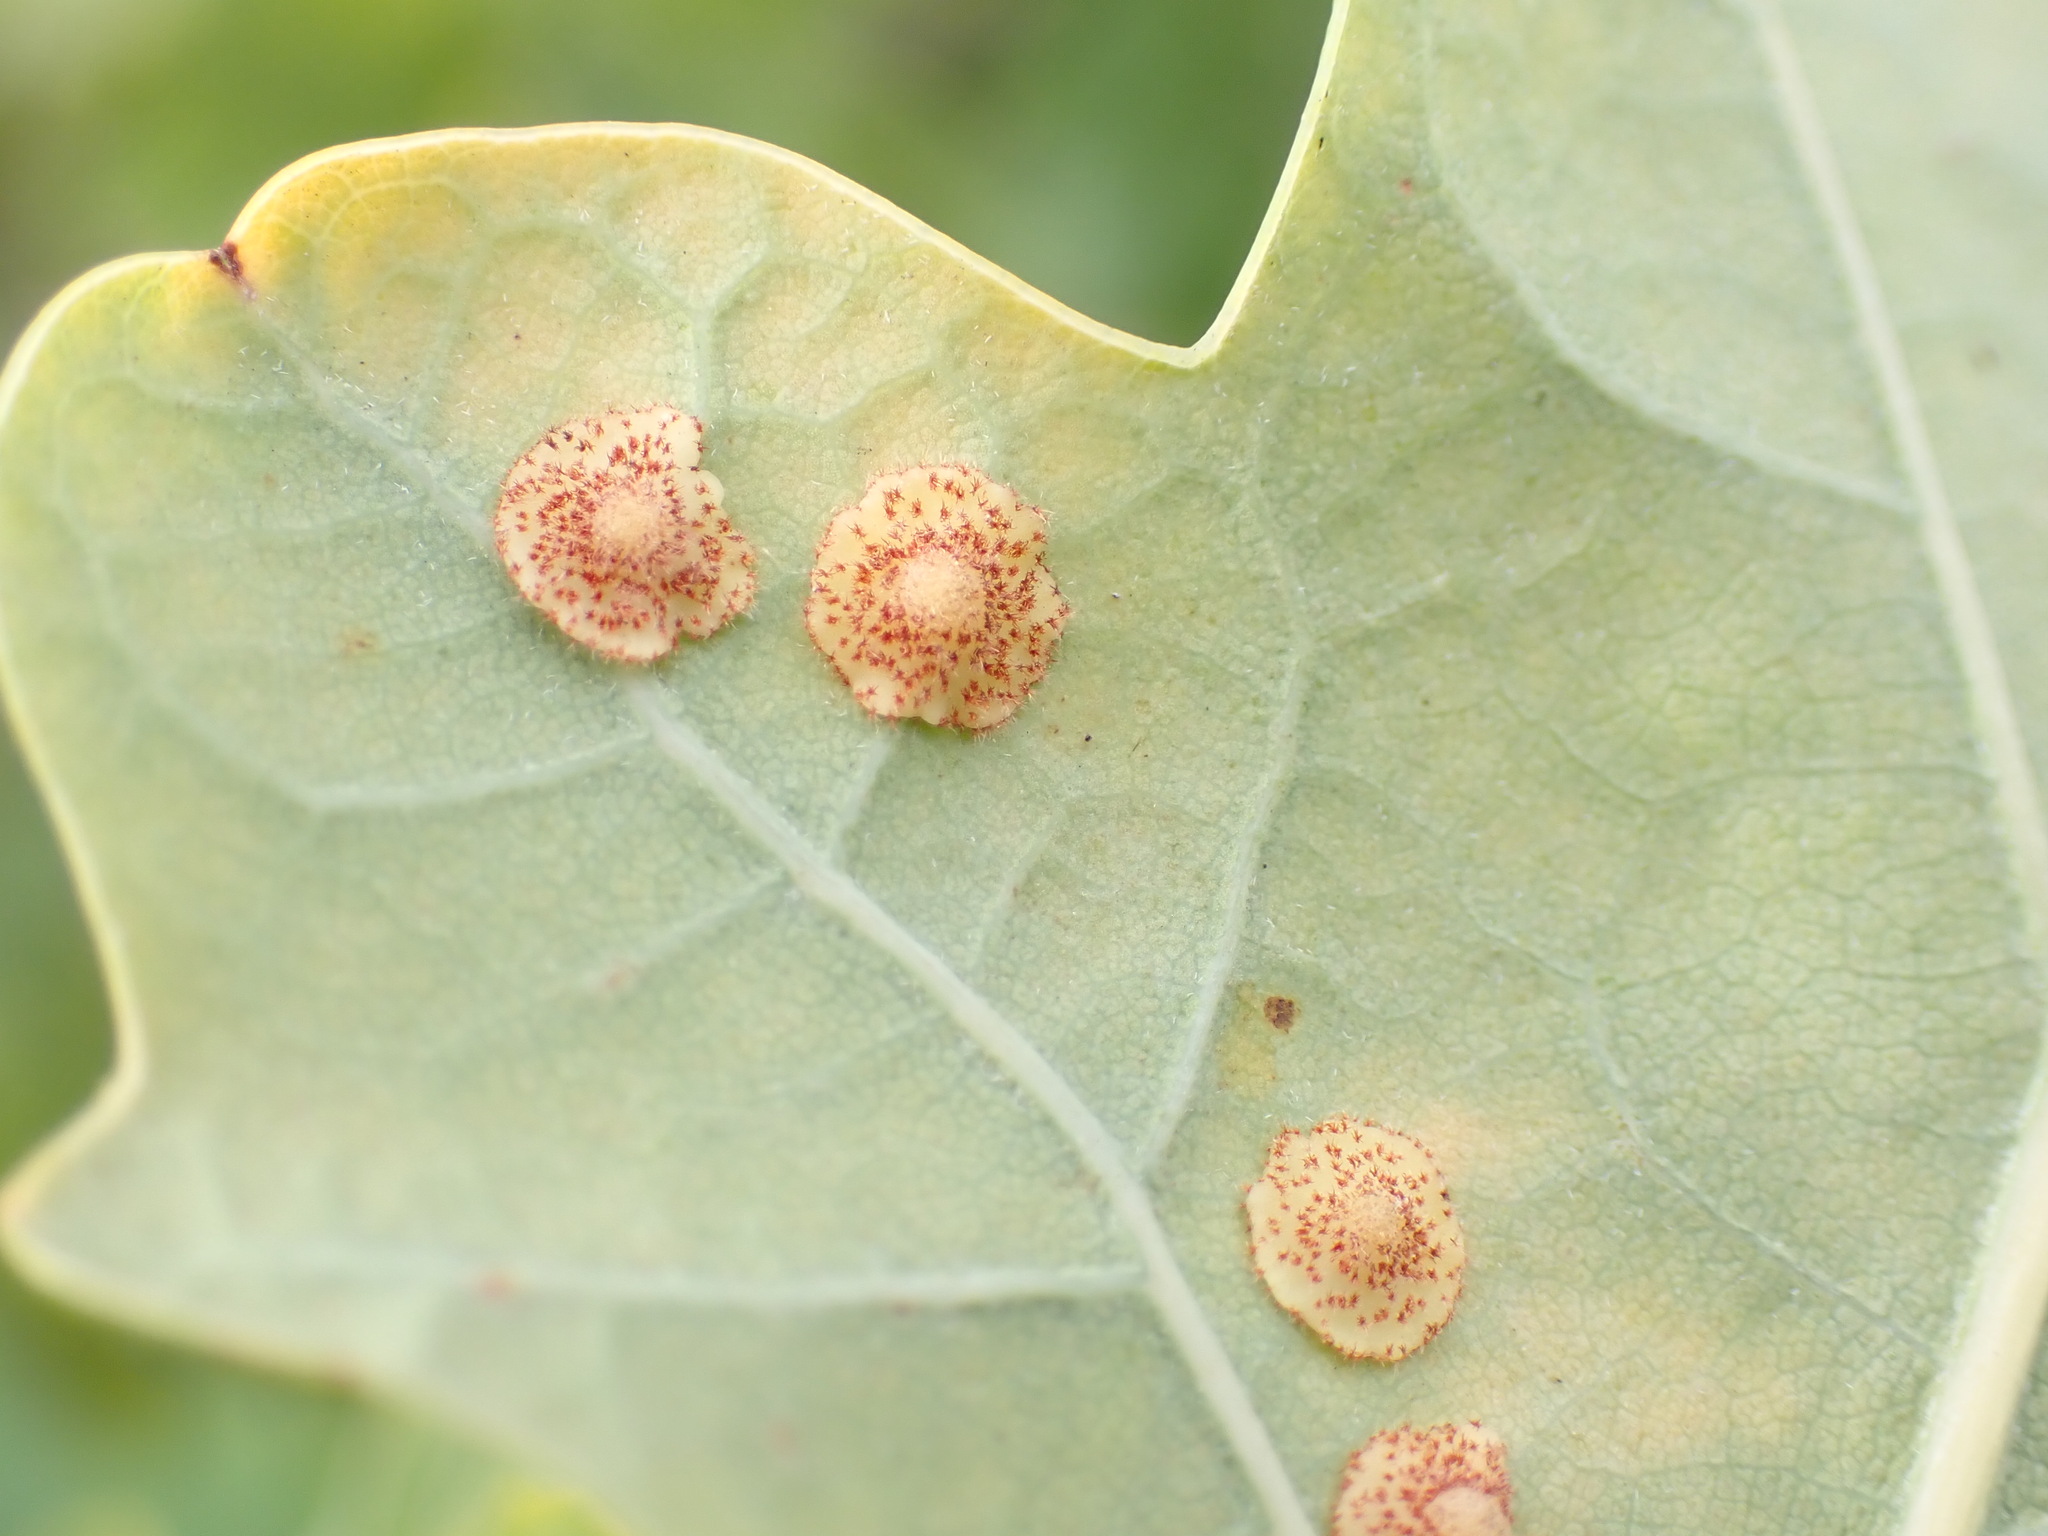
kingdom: Animalia
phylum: Arthropoda
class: Insecta
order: Hymenoptera
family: Cynipidae
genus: Neuroterus
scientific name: Neuroterus quercusbaccarum
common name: Common spangle gall
